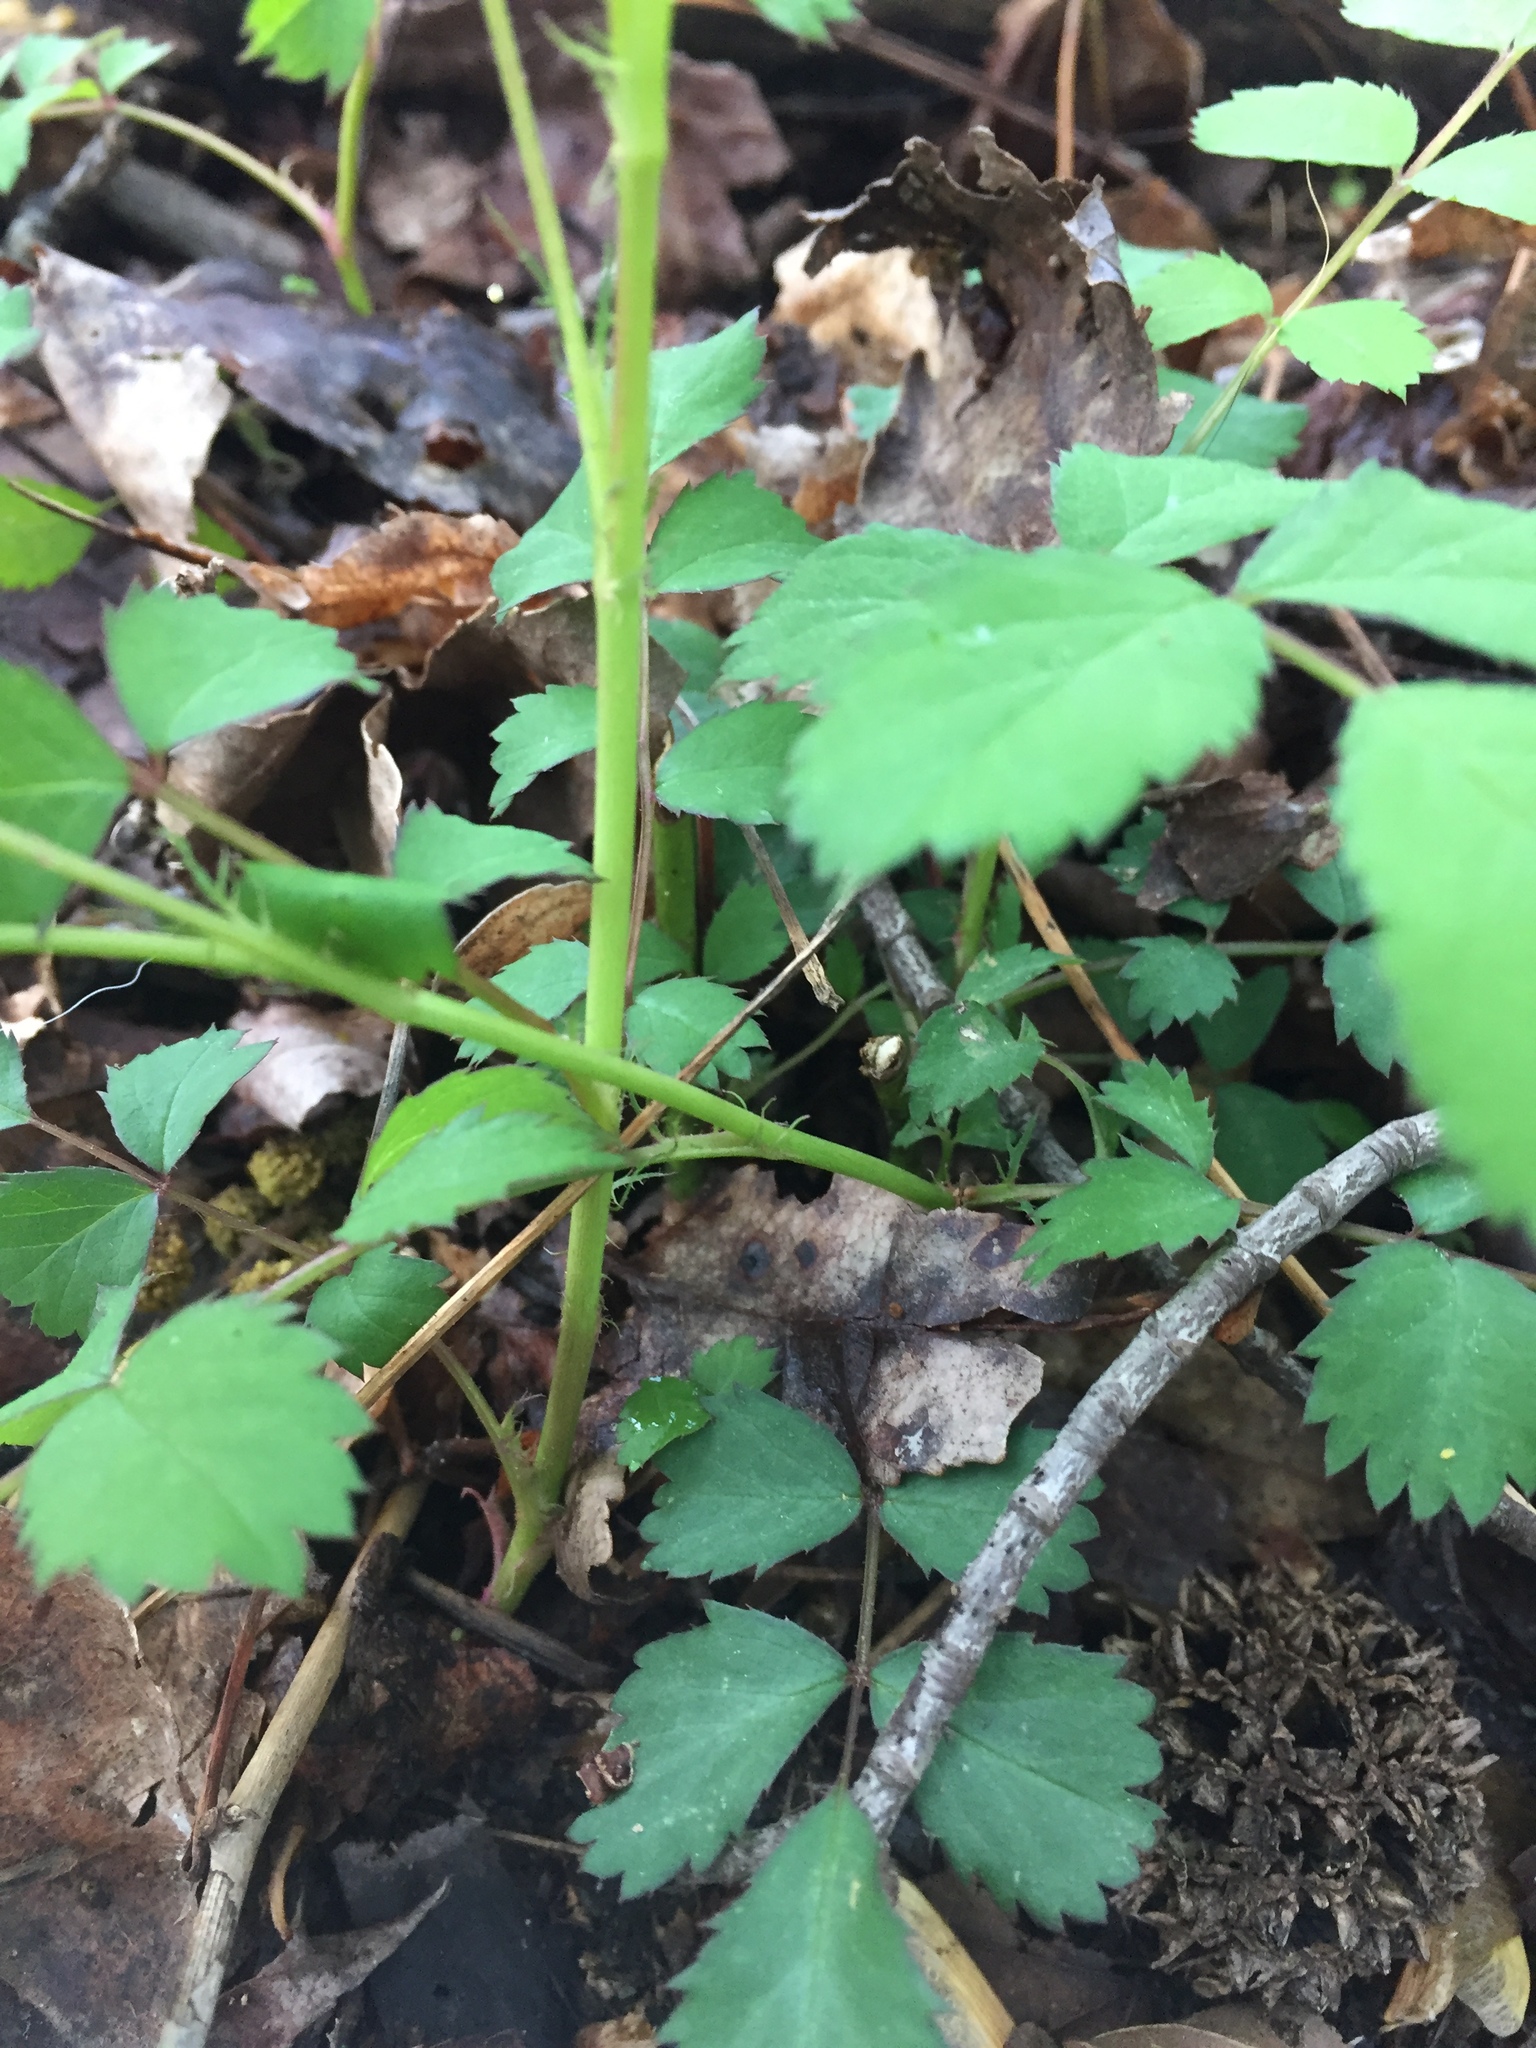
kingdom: Plantae
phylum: Tracheophyta
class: Magnoliopsida
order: Rosales
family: Rosaceae
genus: Rosa
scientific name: Rosa multiflora
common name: Multiflora rose
